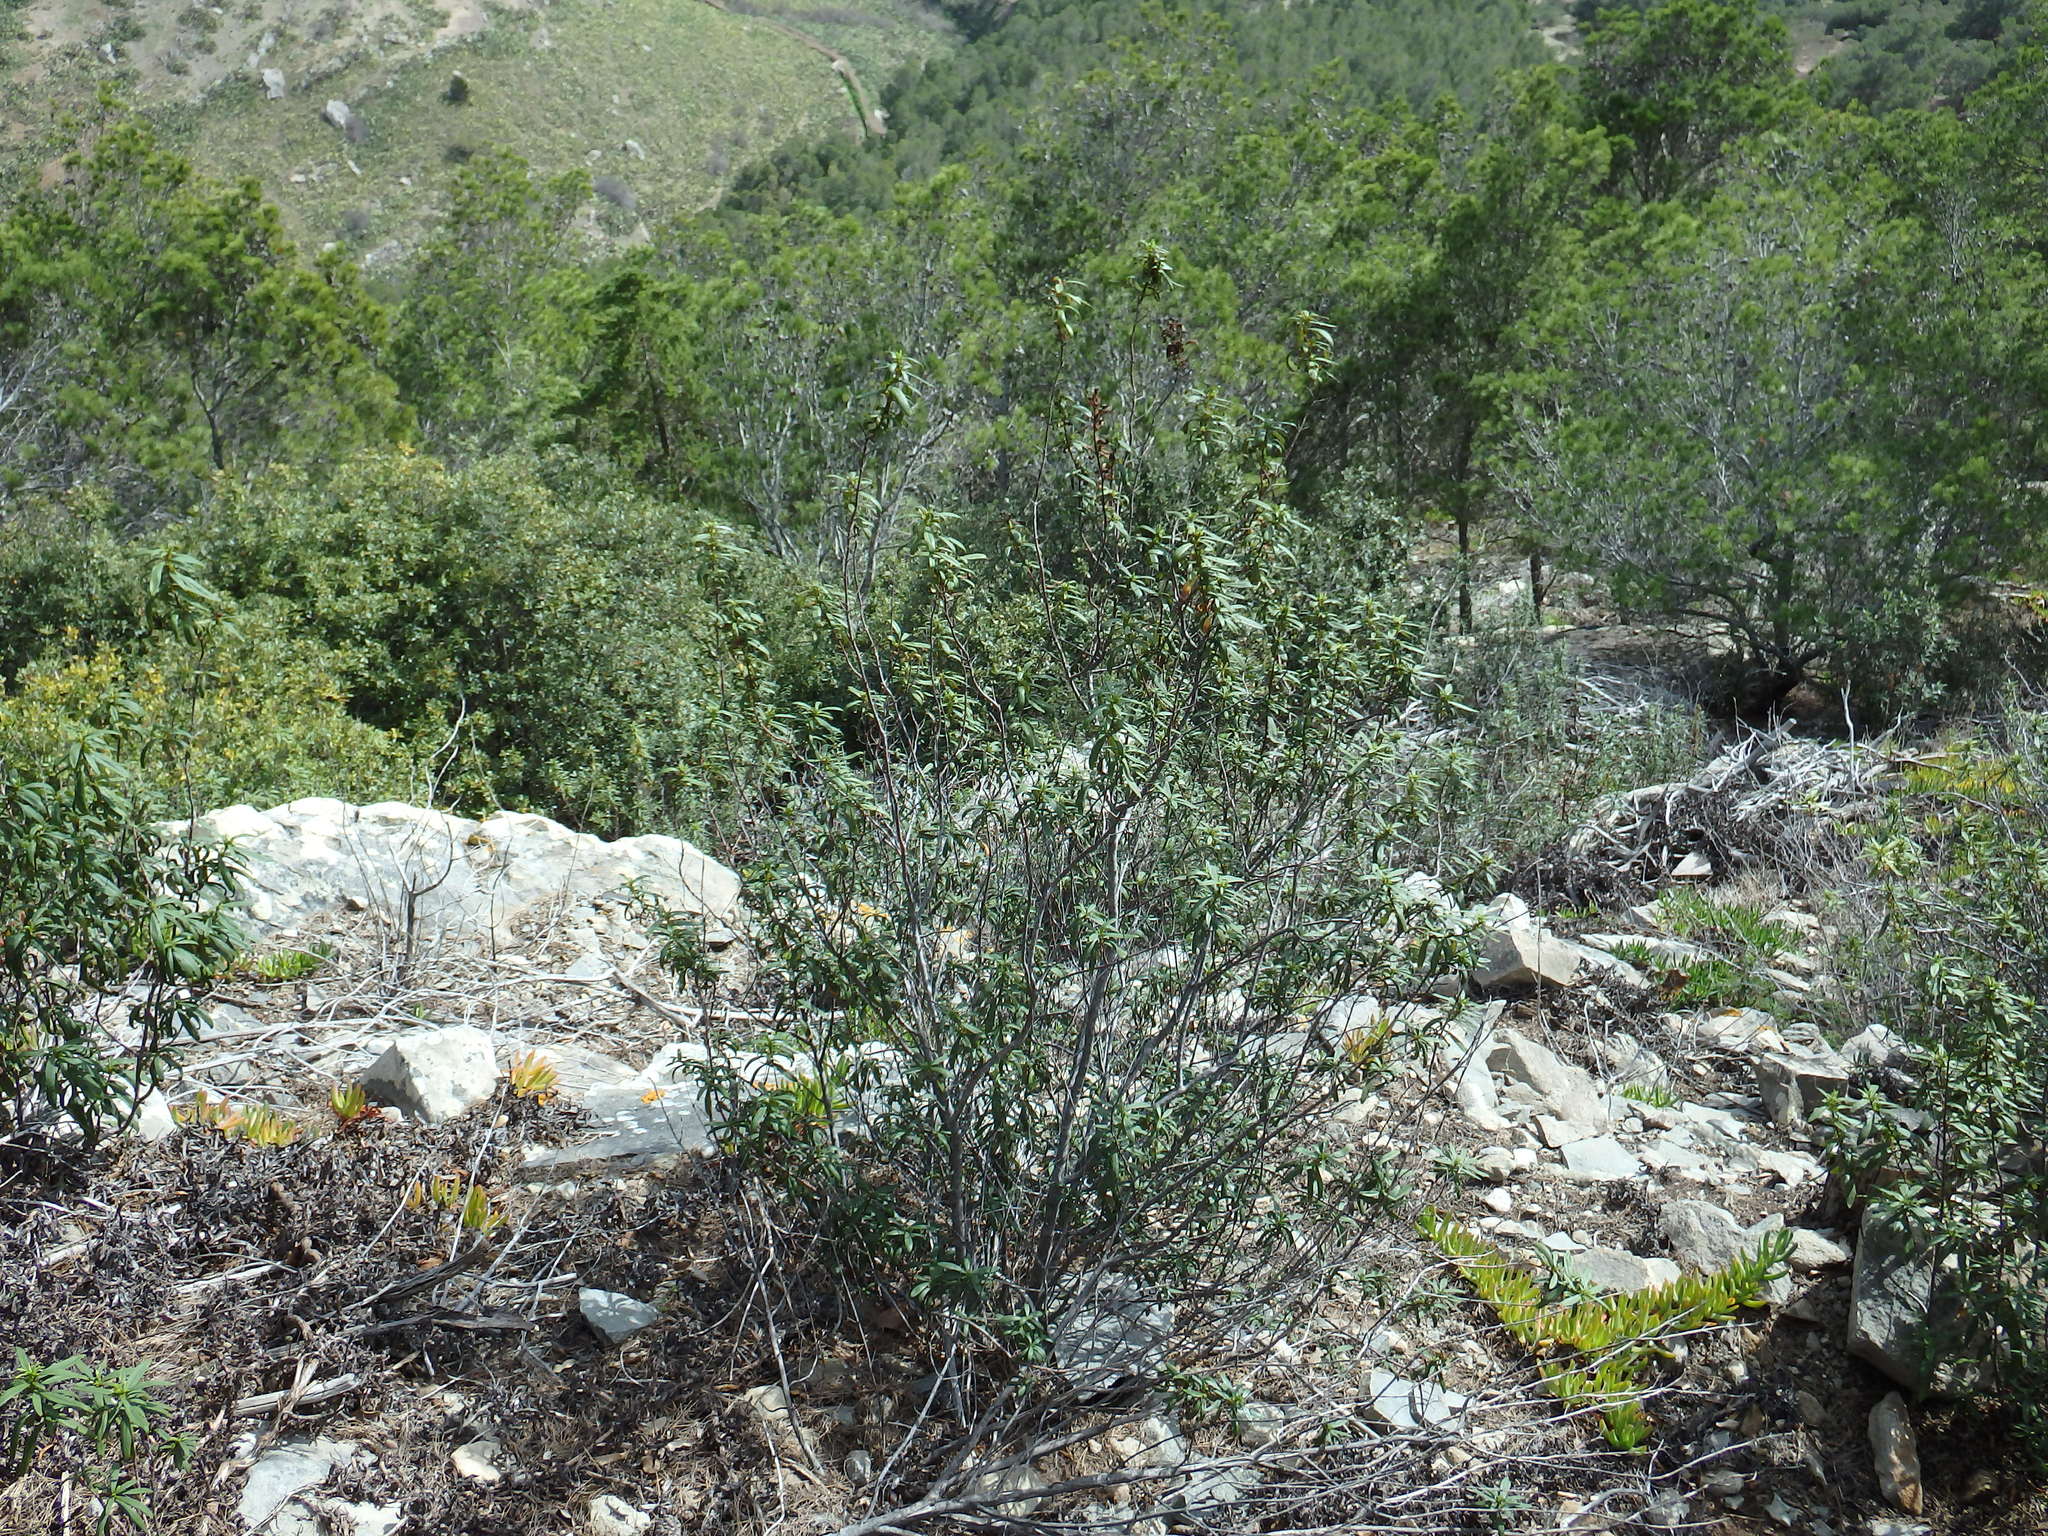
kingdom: Plantae
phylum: Tracheophyta
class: Magnoliopsida
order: Malvales
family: Cistaceae
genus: Cistus
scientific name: Cistus ladanifer
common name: Common gum cistus
